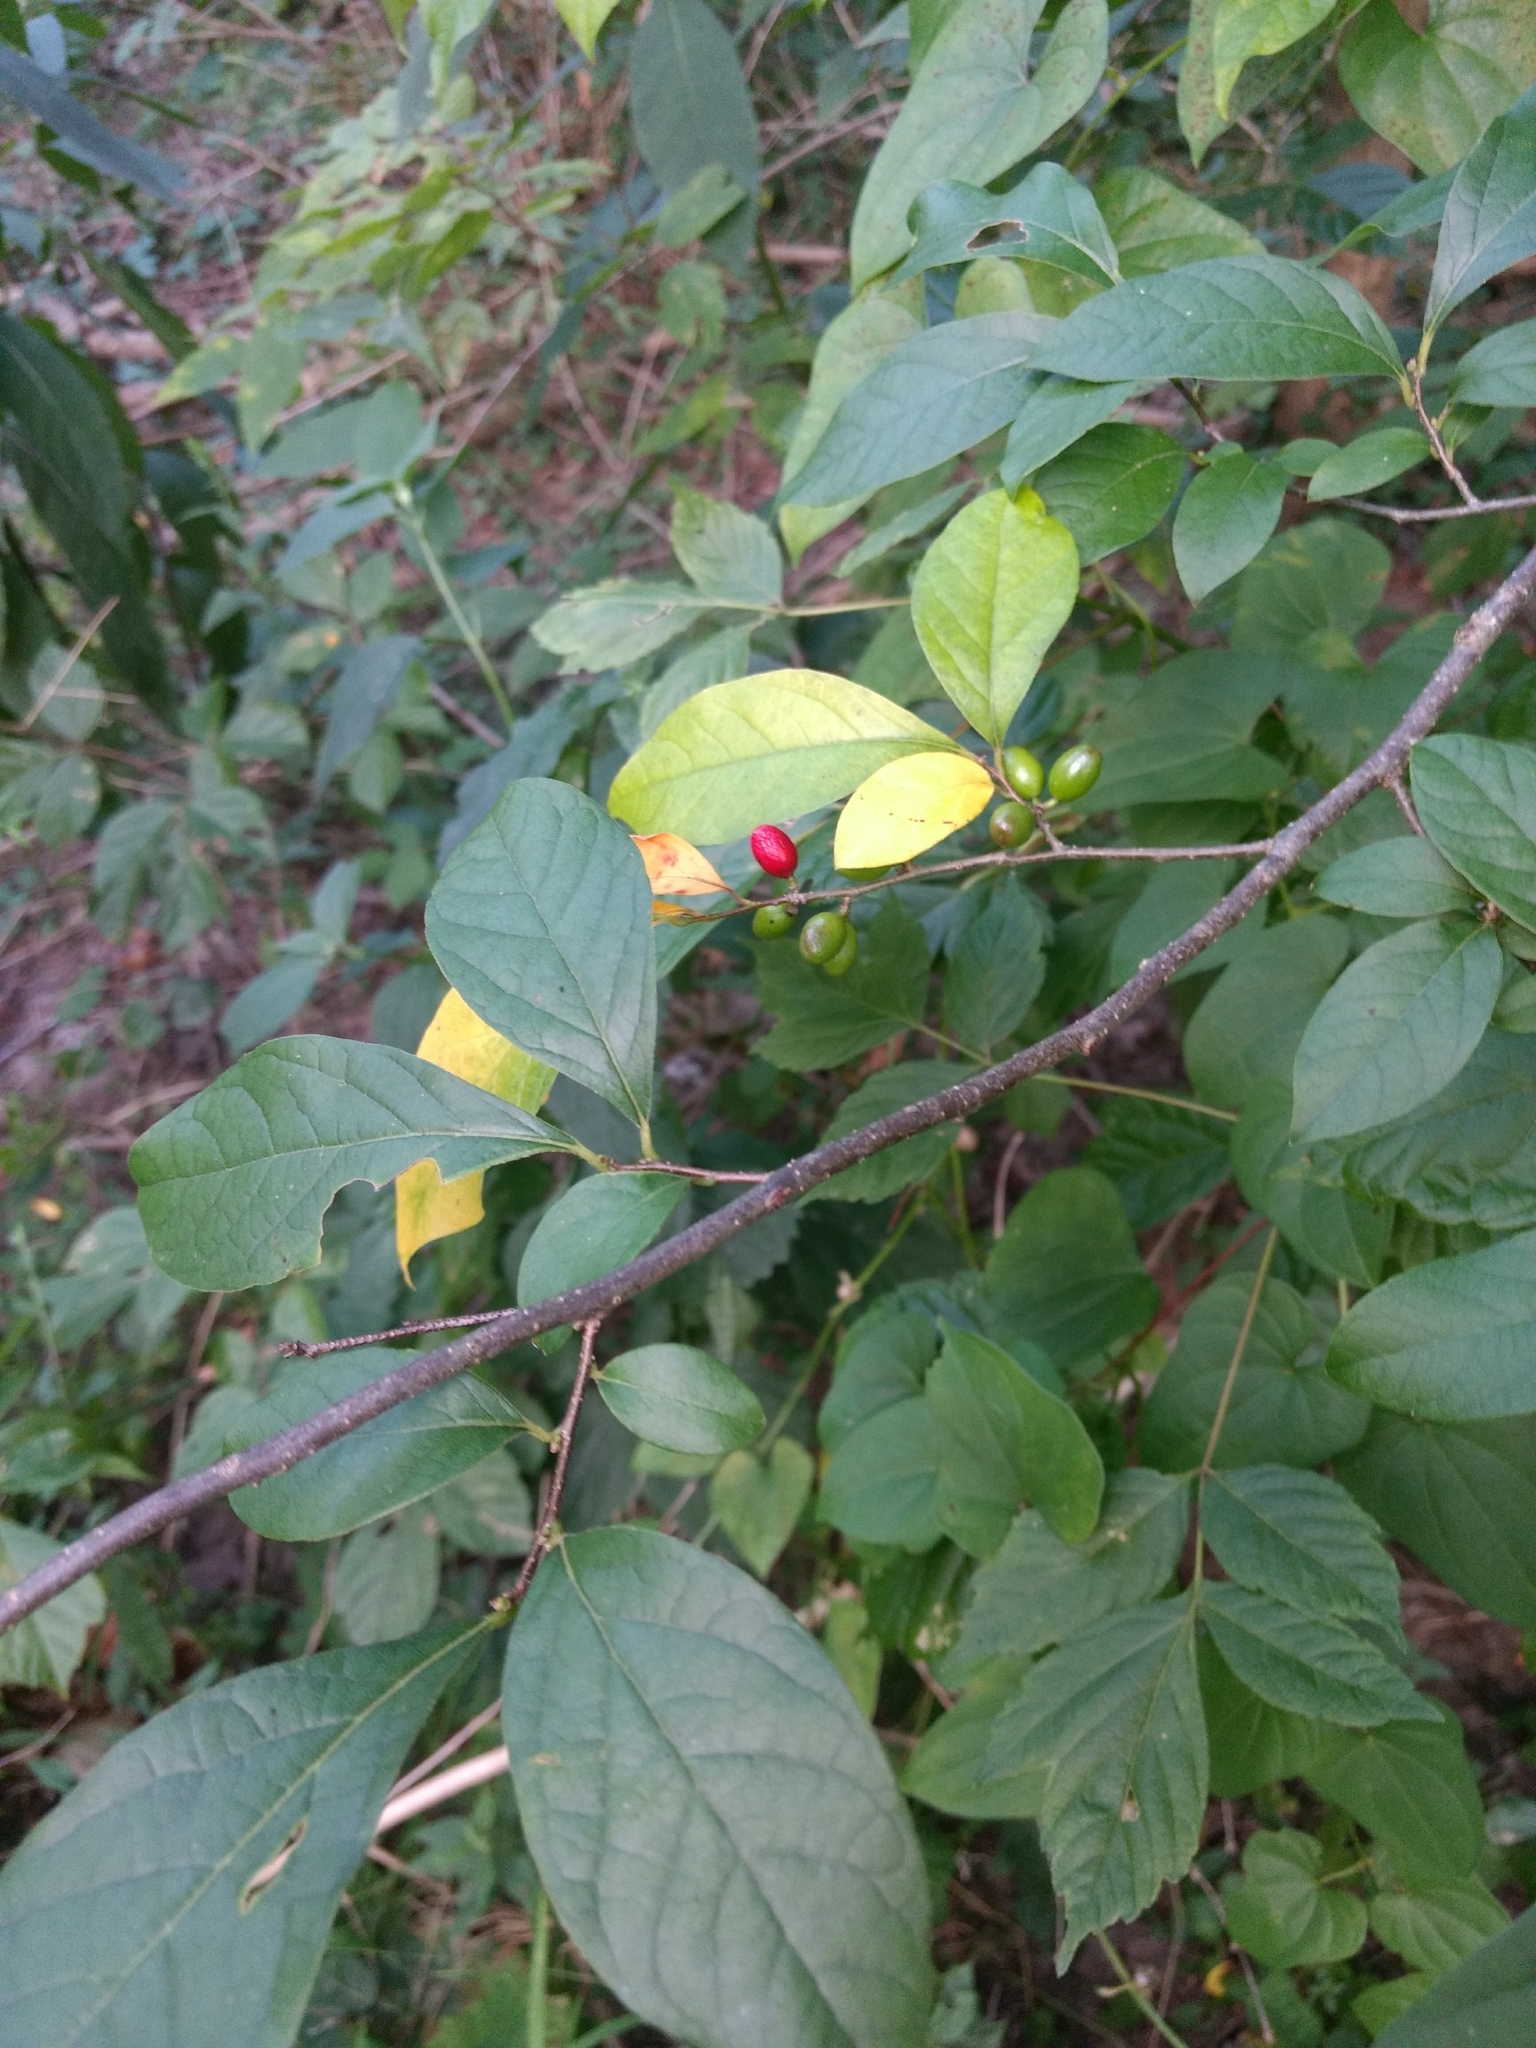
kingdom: Plantae
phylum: Tracheophyta
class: Magnoliopsida
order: Laurales
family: Lauraceae
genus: Lindera
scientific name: Lindera benzoin
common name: Spicebush
